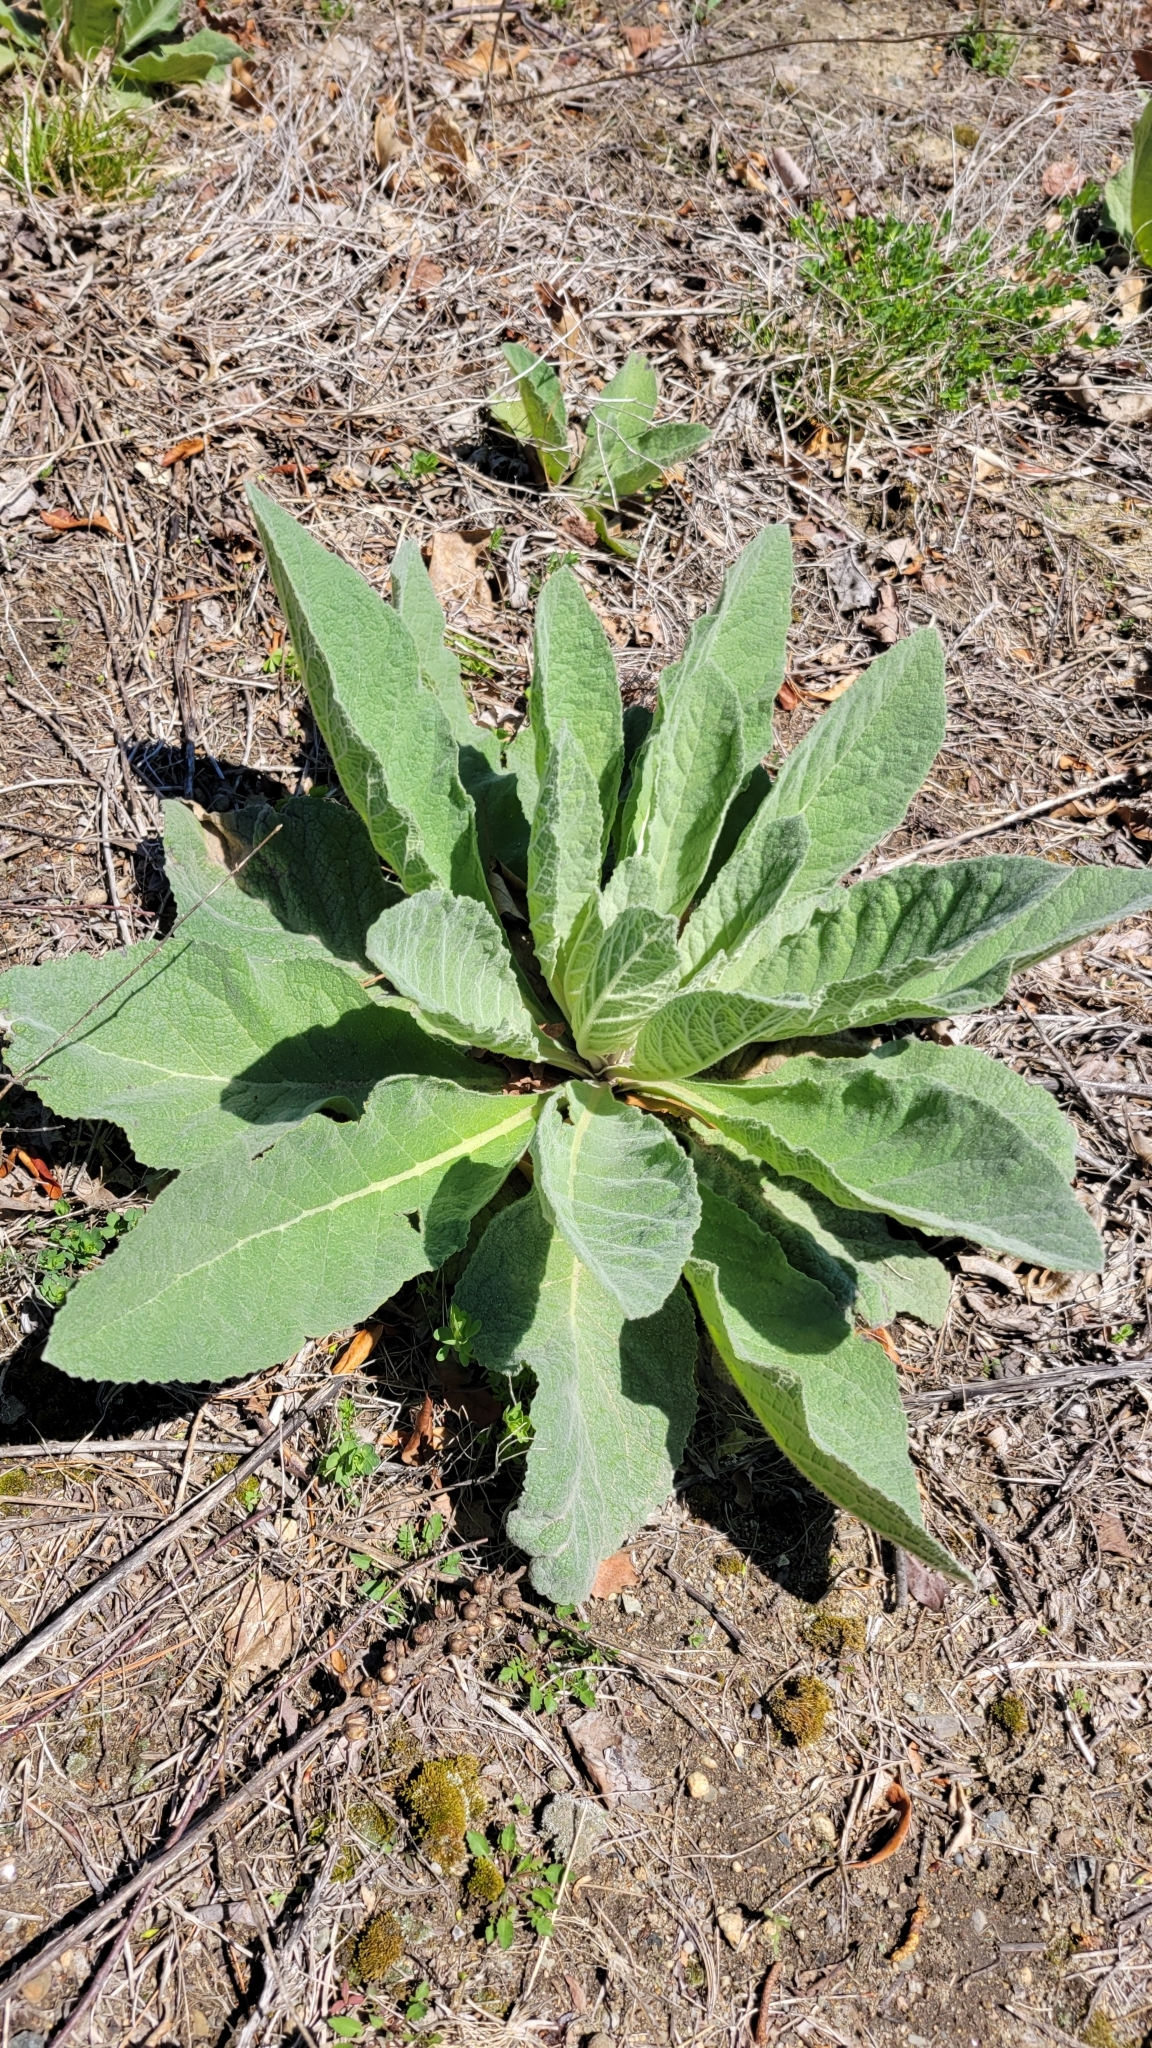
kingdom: Plantae
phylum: Tracheophyta
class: Magnoliopsida
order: Lamiales
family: Scrophulariaceae
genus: Verbascum
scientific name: Verbascum thapsus
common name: Common mullein
